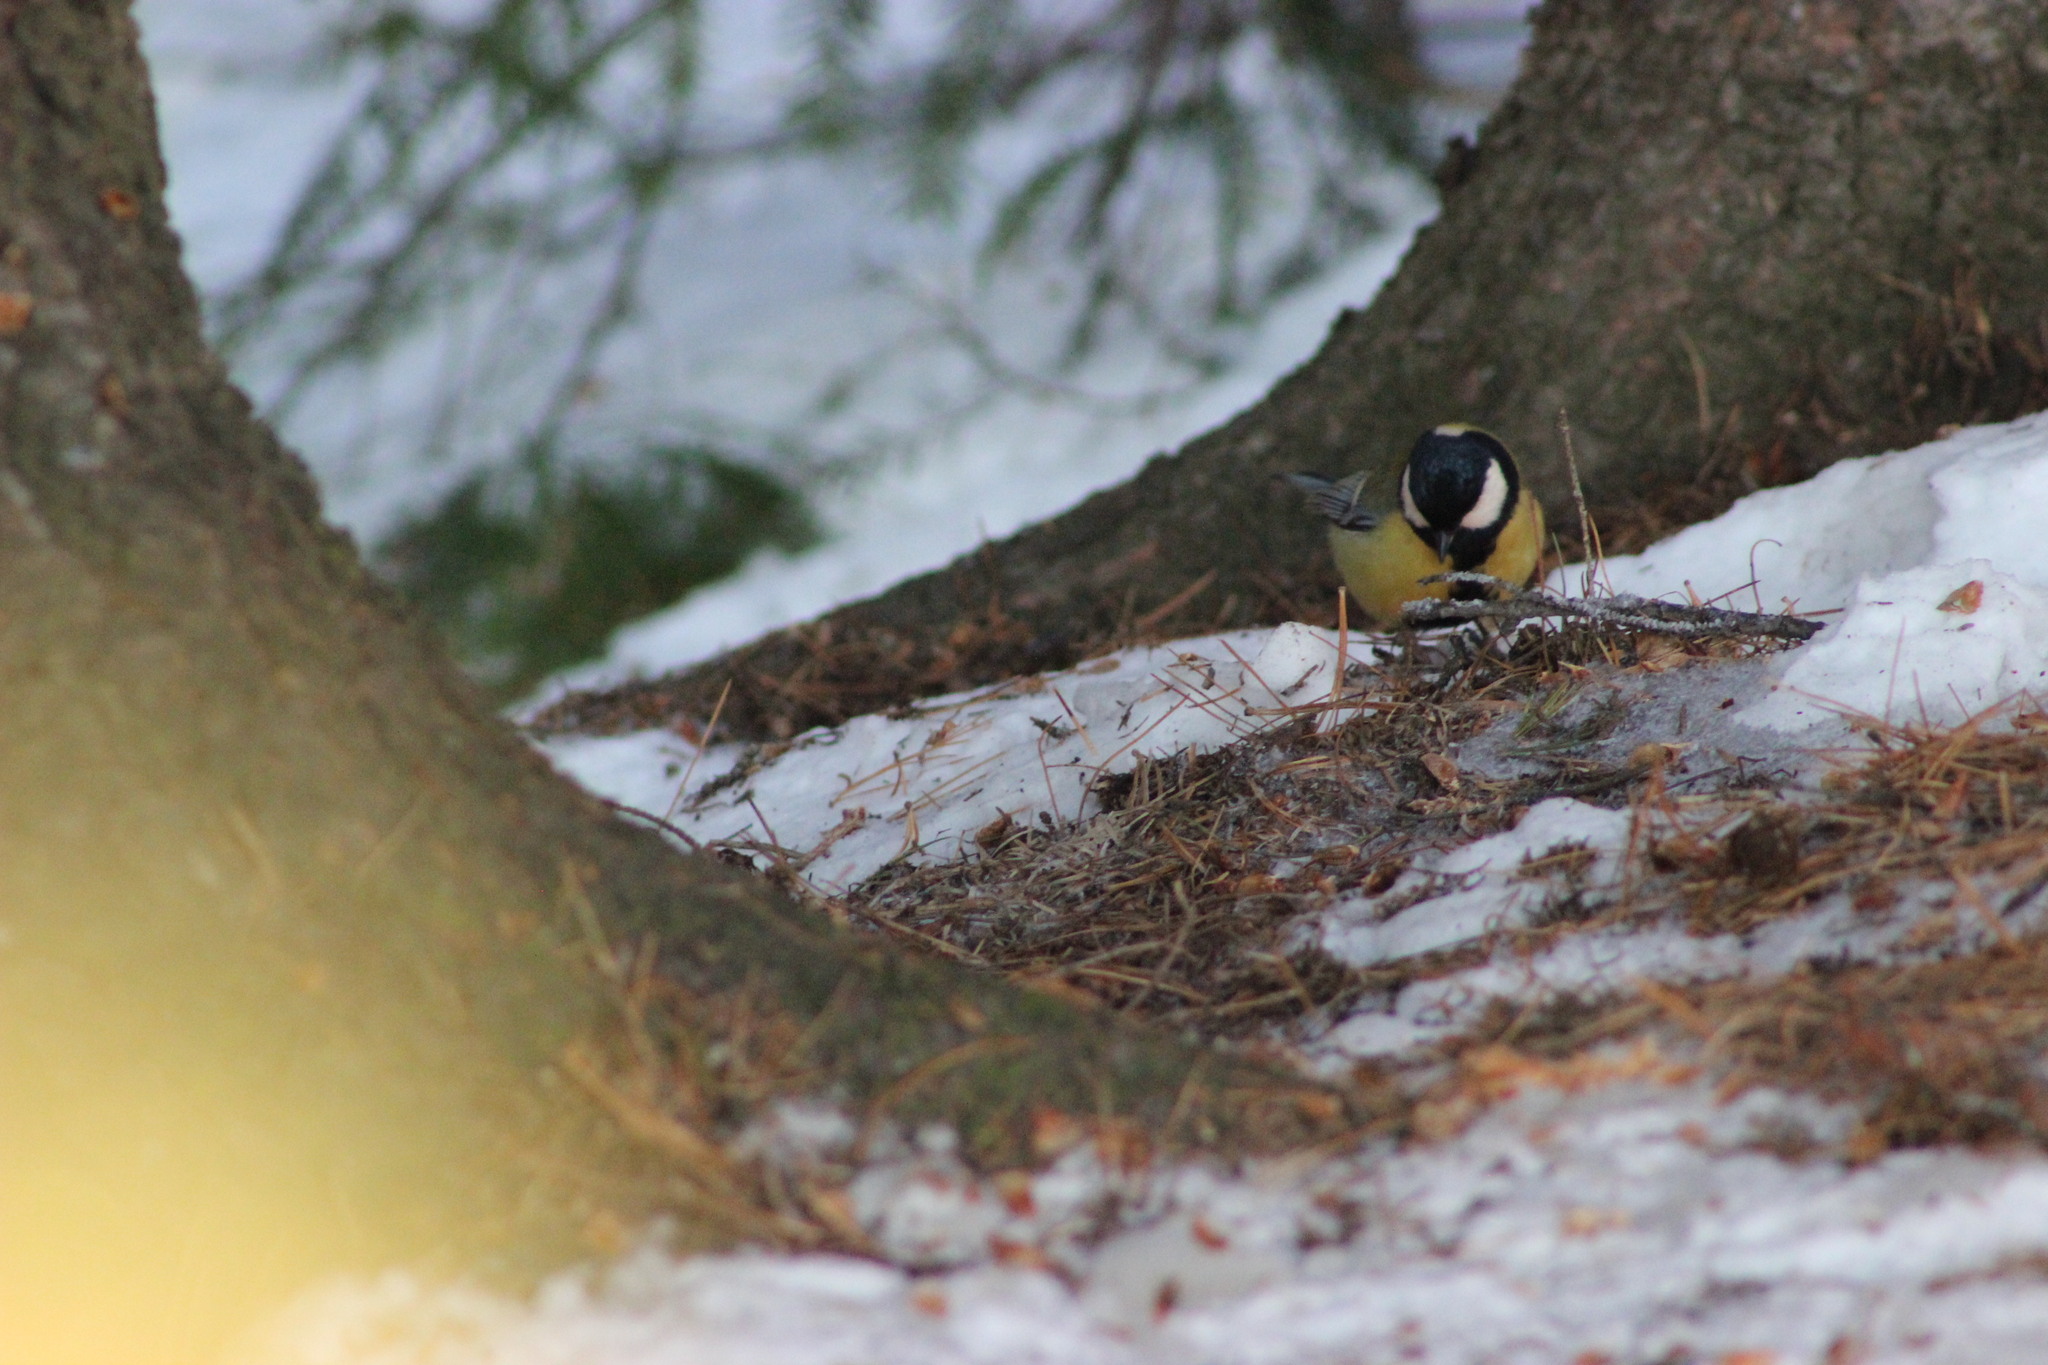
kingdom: Animalia
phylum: Chordata
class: Aves
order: Passeriformes
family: Paridae
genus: Parus
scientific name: Parus major
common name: Great tit
